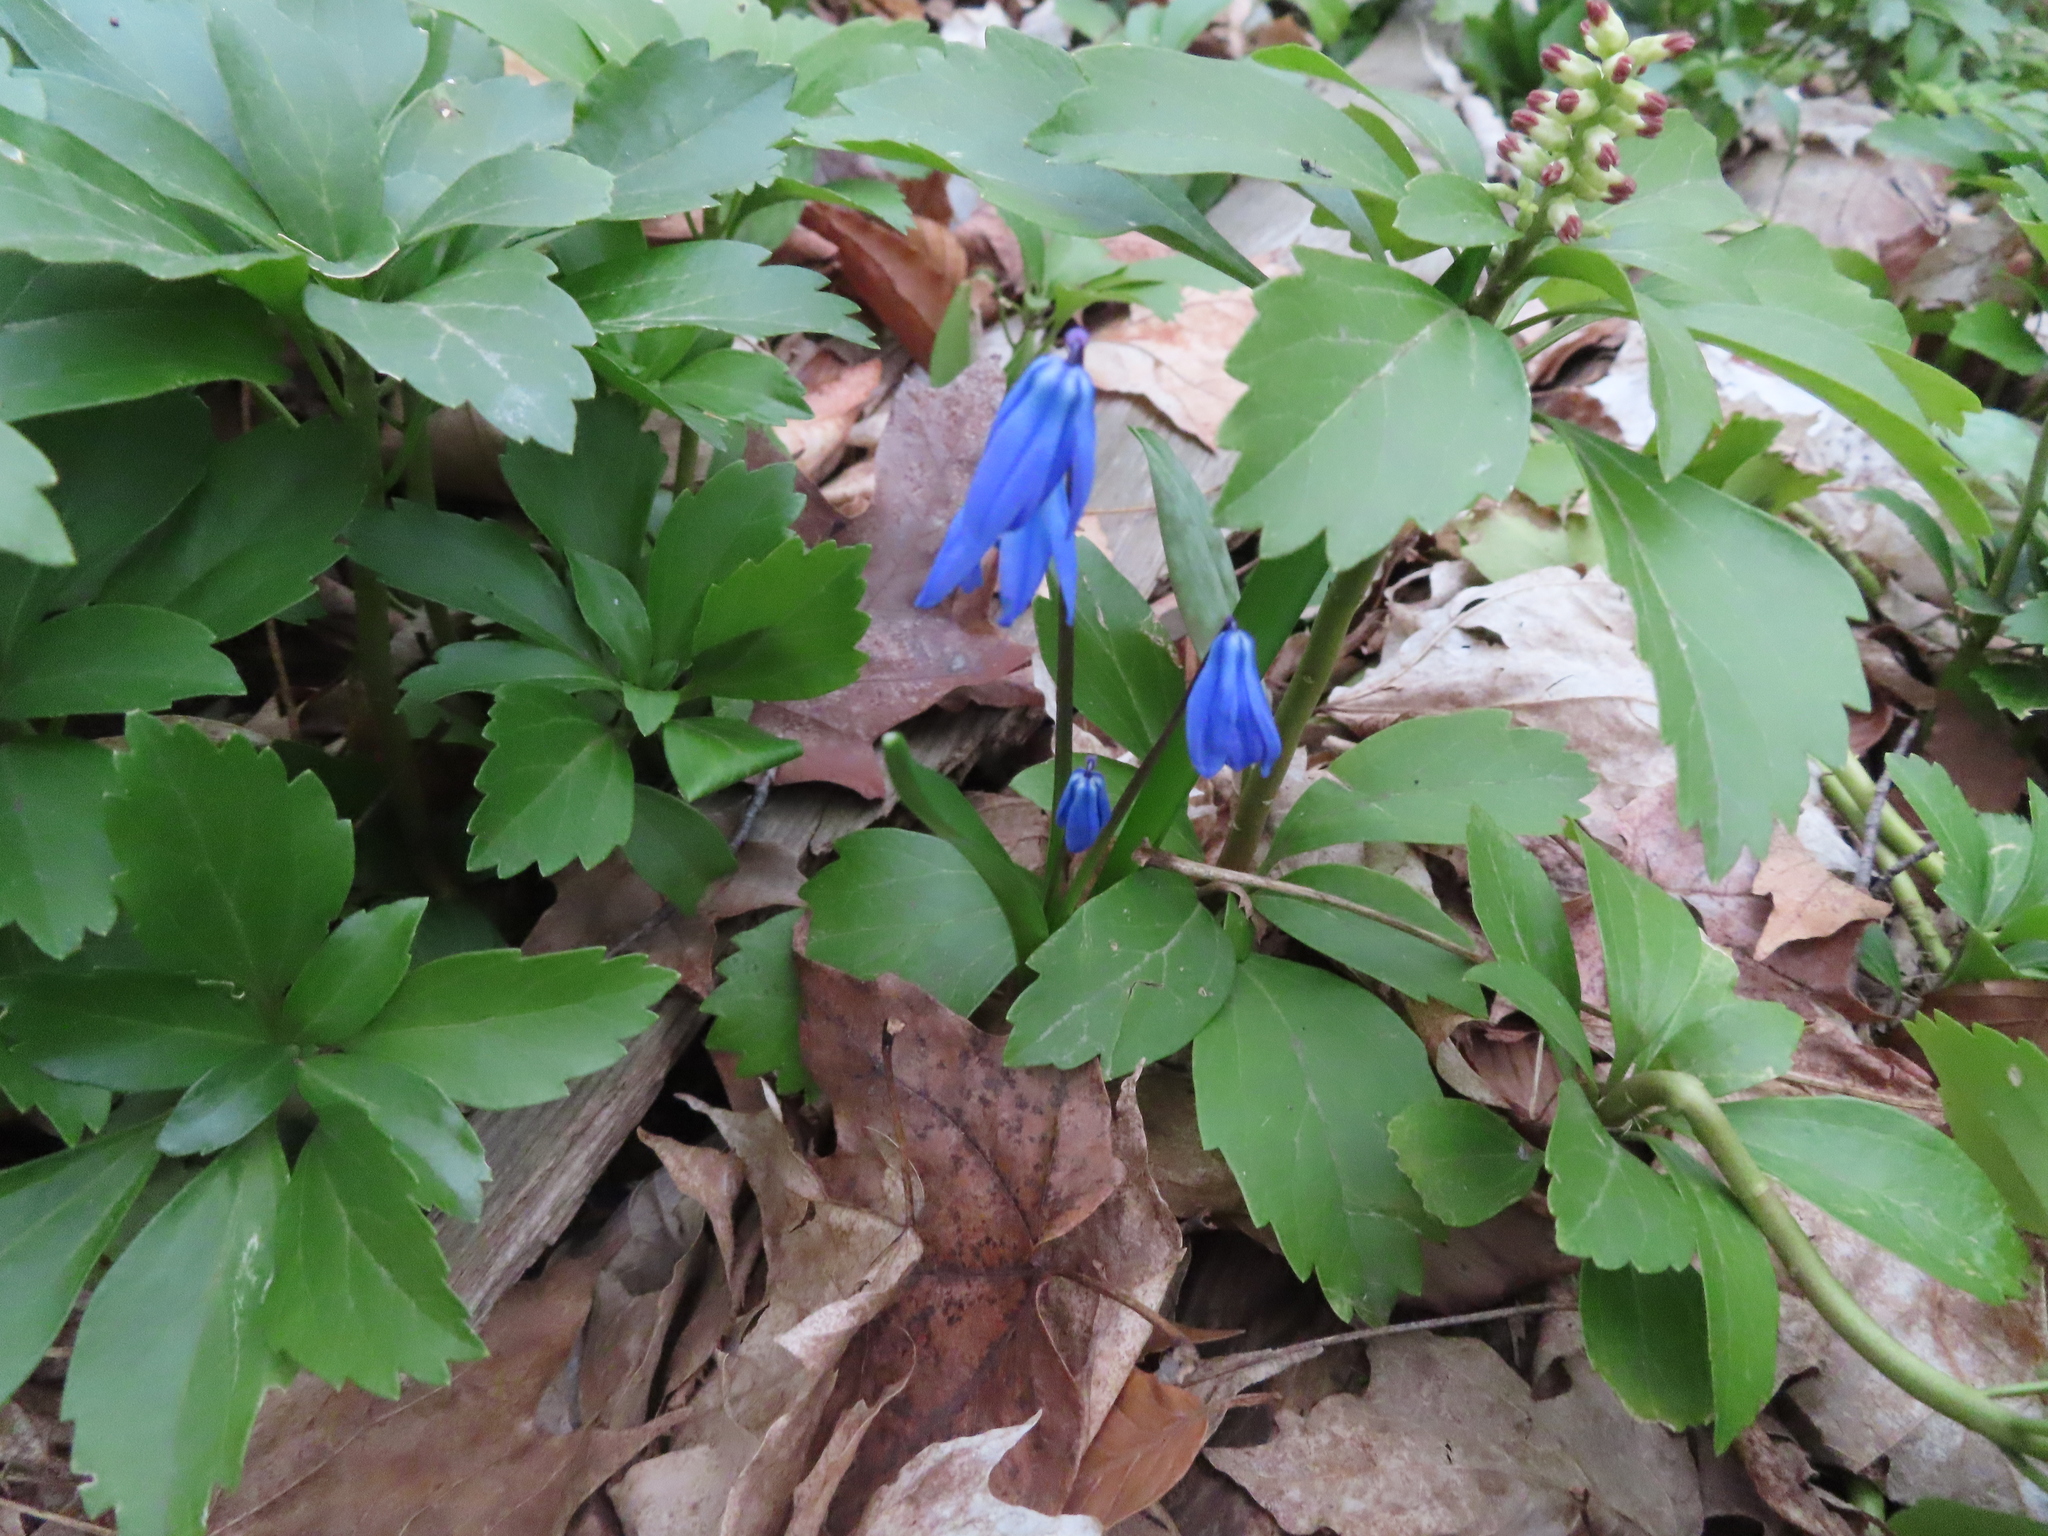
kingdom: Plantae
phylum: Tracheophyta
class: Liliopsida
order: Asparagales
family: Asparagaceae
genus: Scilla
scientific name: Scilla siberica
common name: Siberian squill
